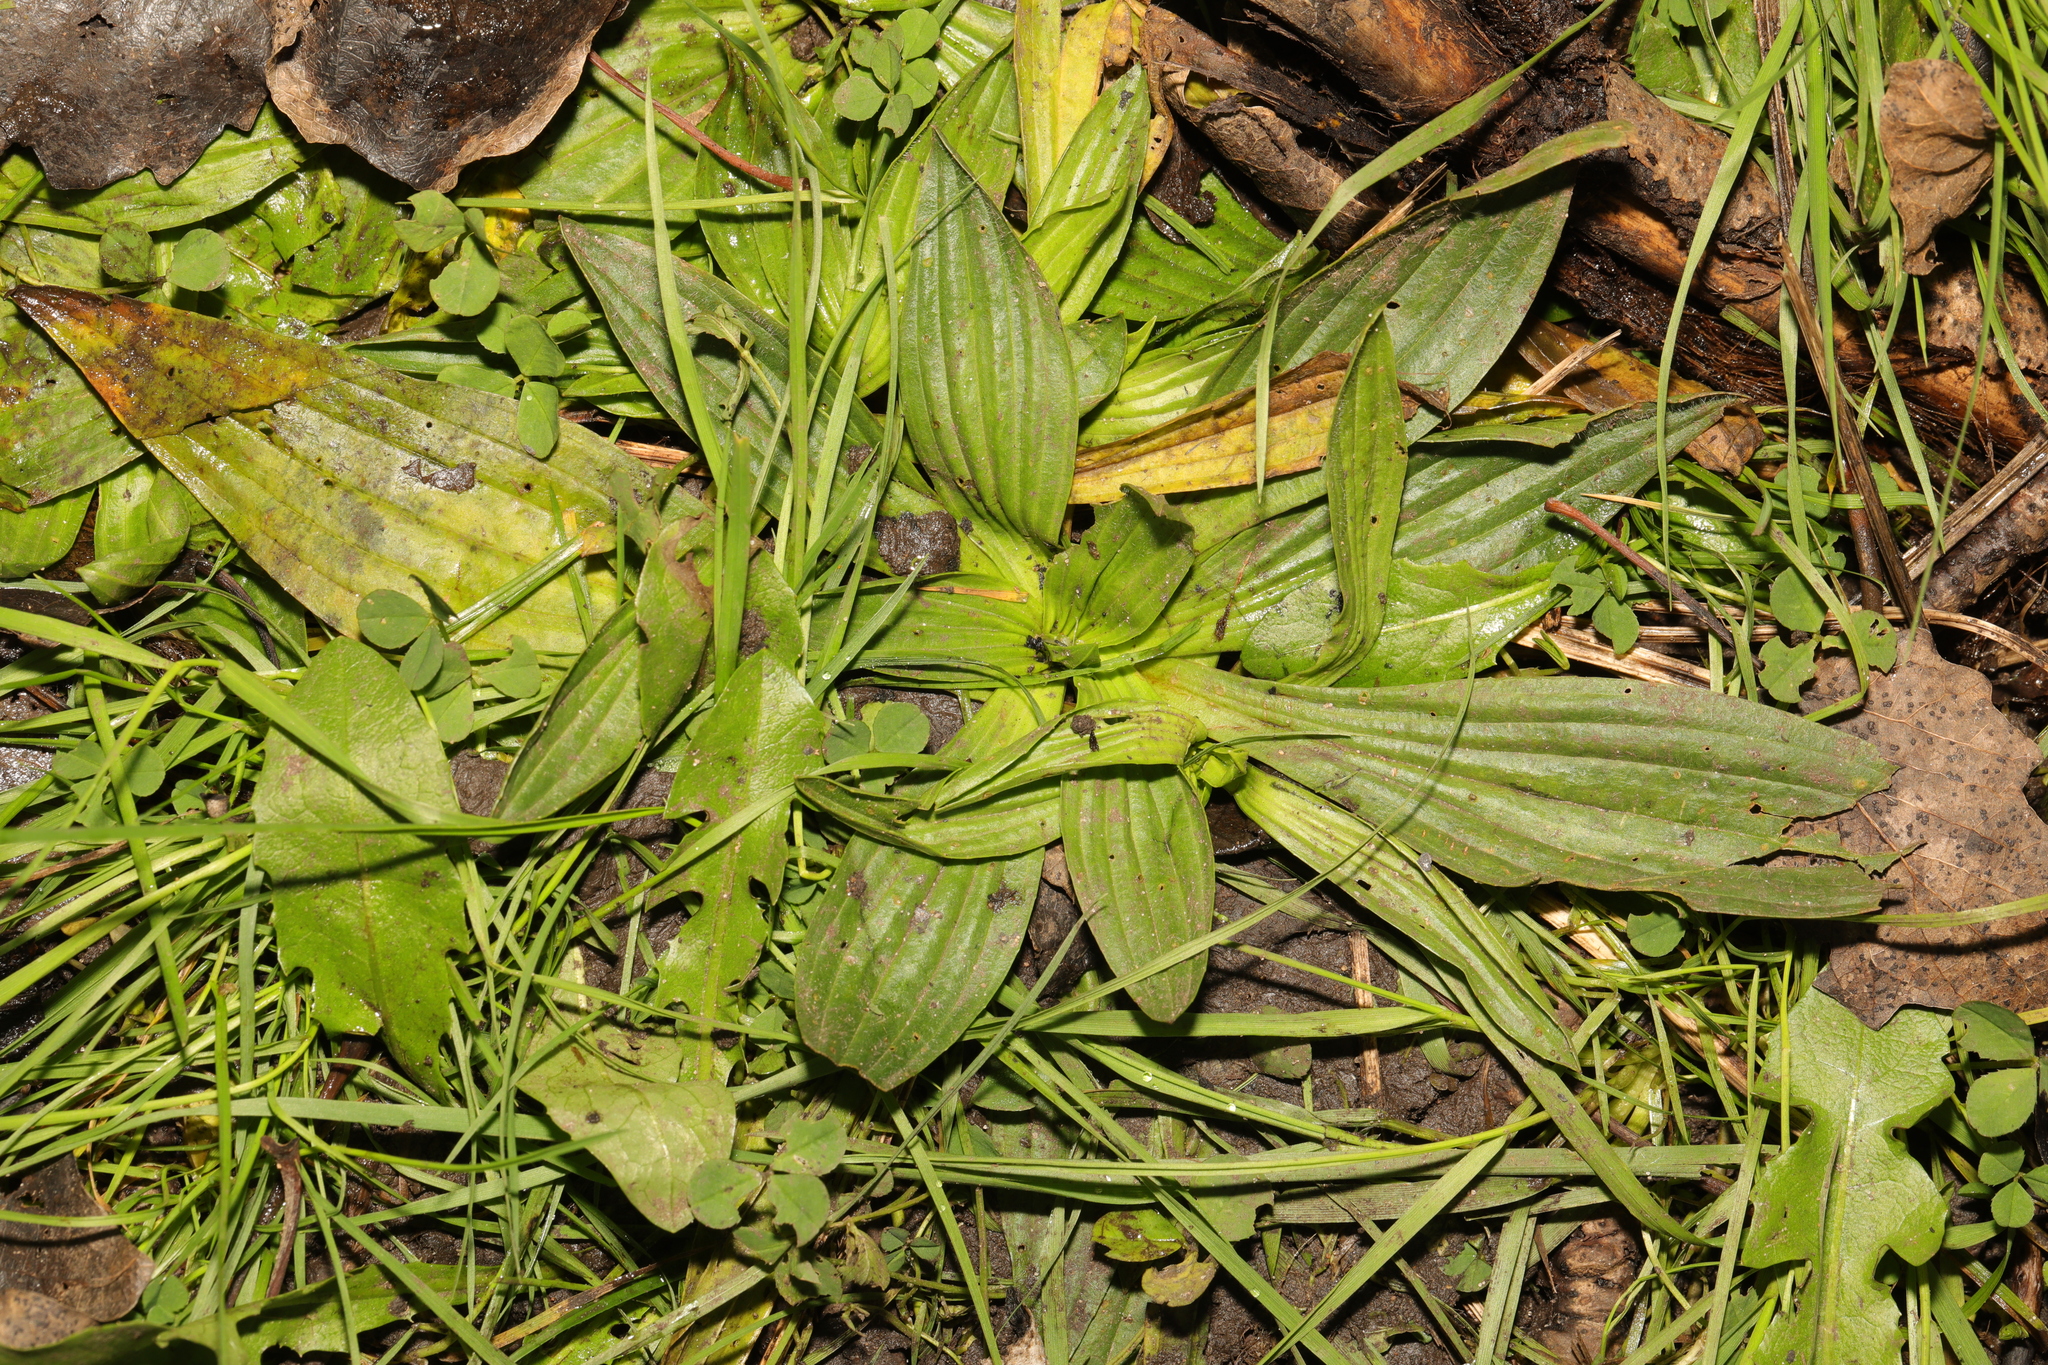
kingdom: Plantae
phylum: Tracheophyta
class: Magnoliopsida
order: Lamiales
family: Plantaginaceae
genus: Plantago
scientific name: Plantago lanceolata
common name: Ribwort plantain
